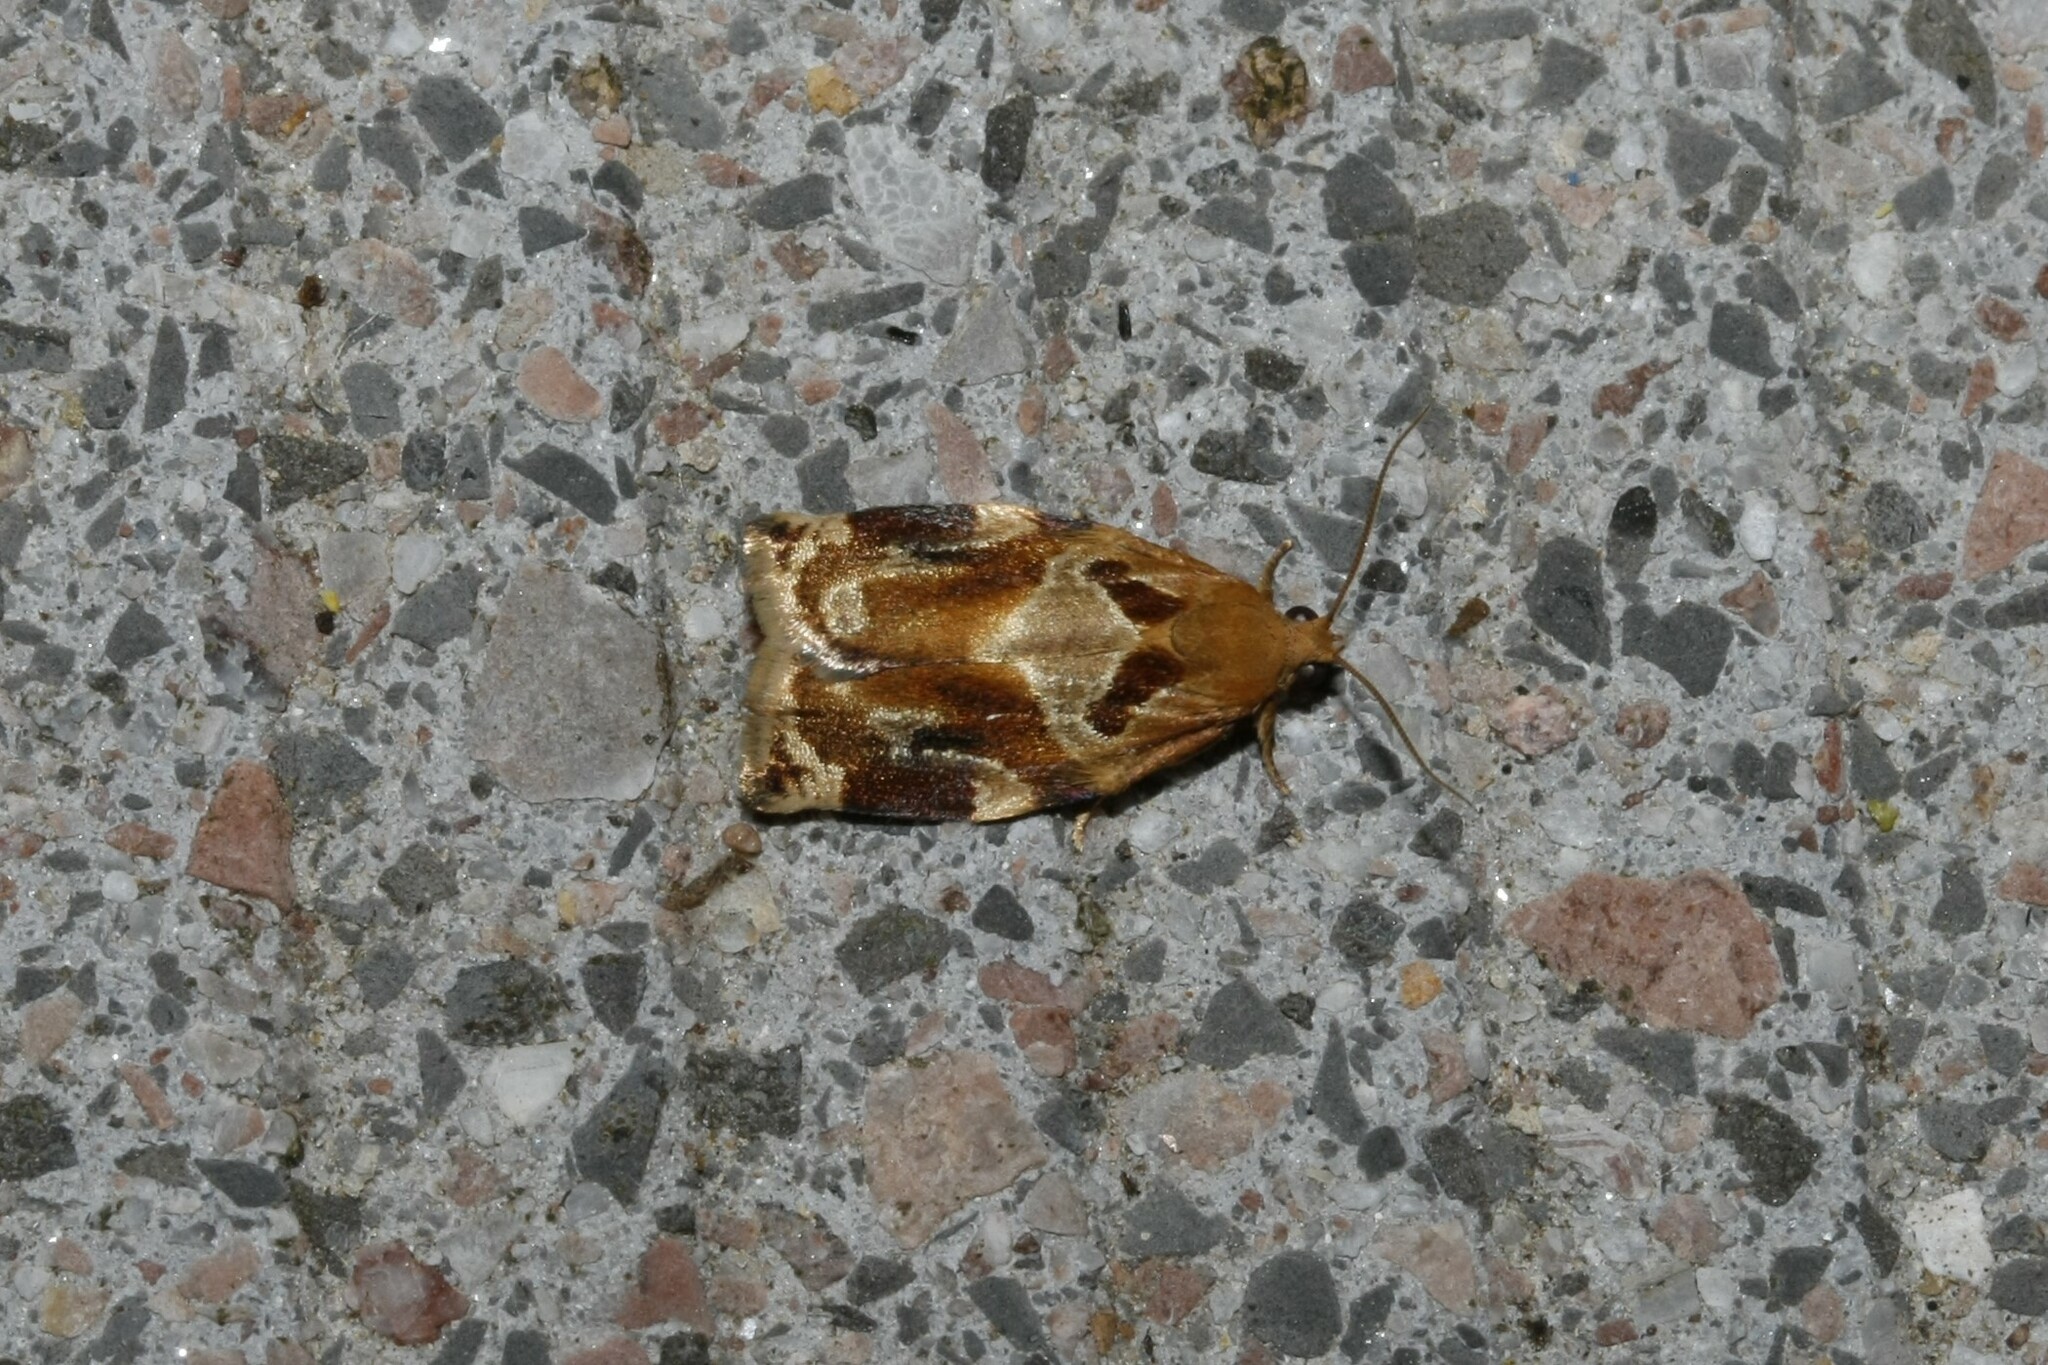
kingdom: Animalia
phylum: Arthropoda
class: Insecta
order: Lepidoptera
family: Tortricidae
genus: Archips
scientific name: Archips xylosteana
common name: Variegated golden tortrix
